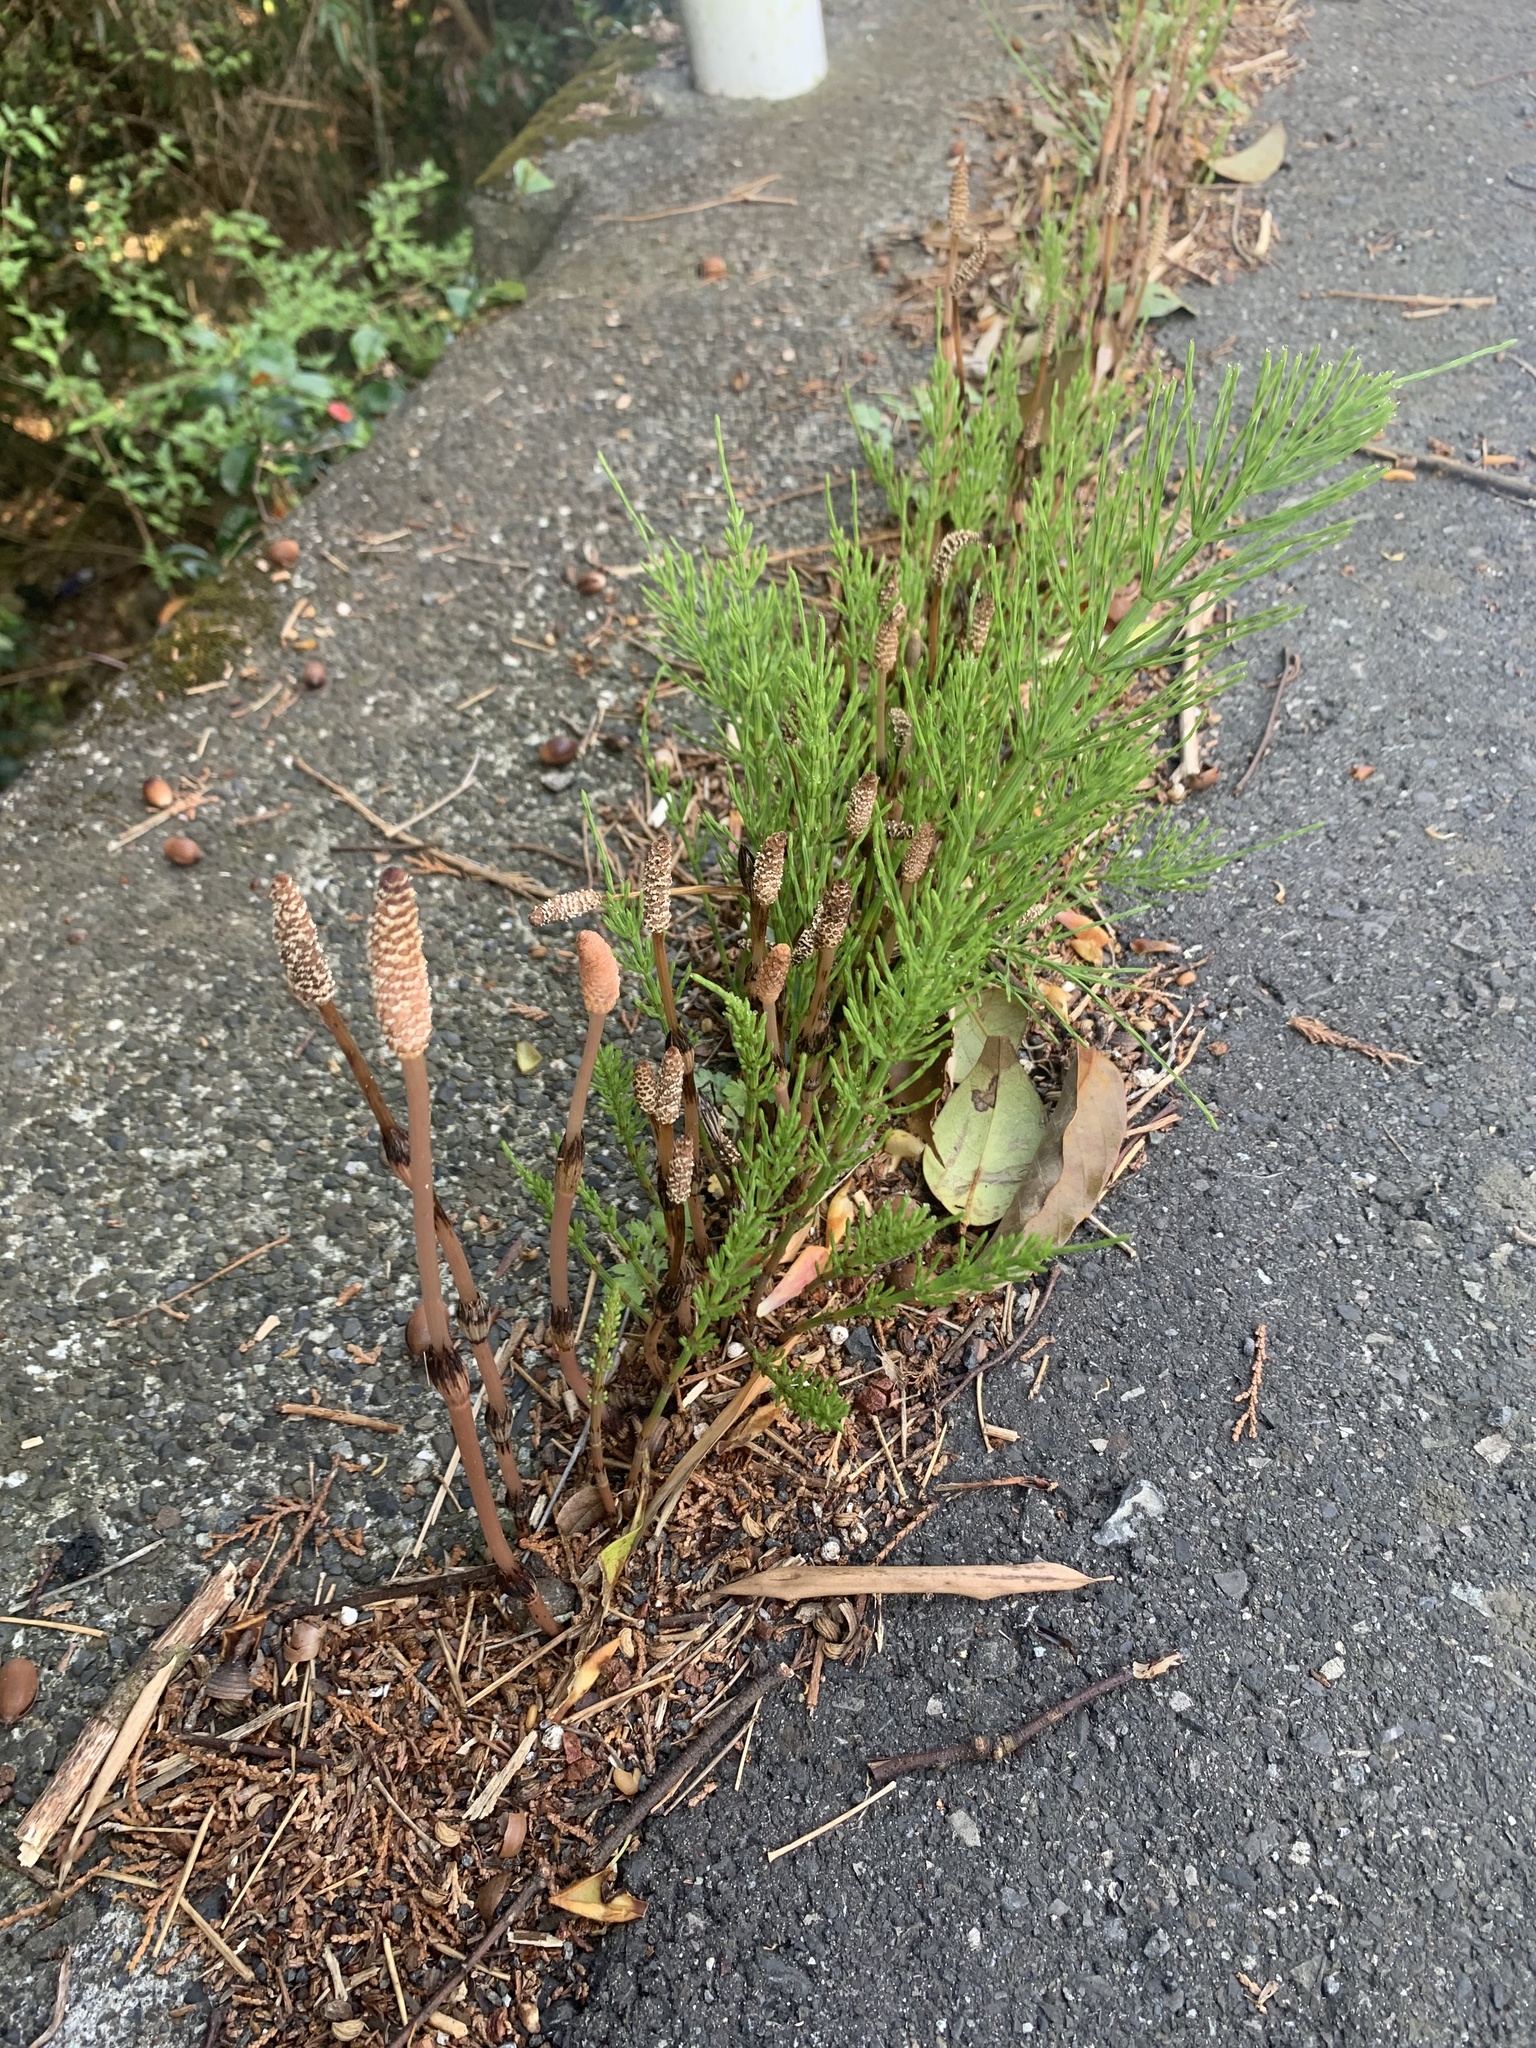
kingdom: Plantae
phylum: Tracheophyta
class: Polypodiopsida
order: Equisetales
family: Equisetaceae
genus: Equisetum
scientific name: Equisetum arvense
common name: Field horsetail
